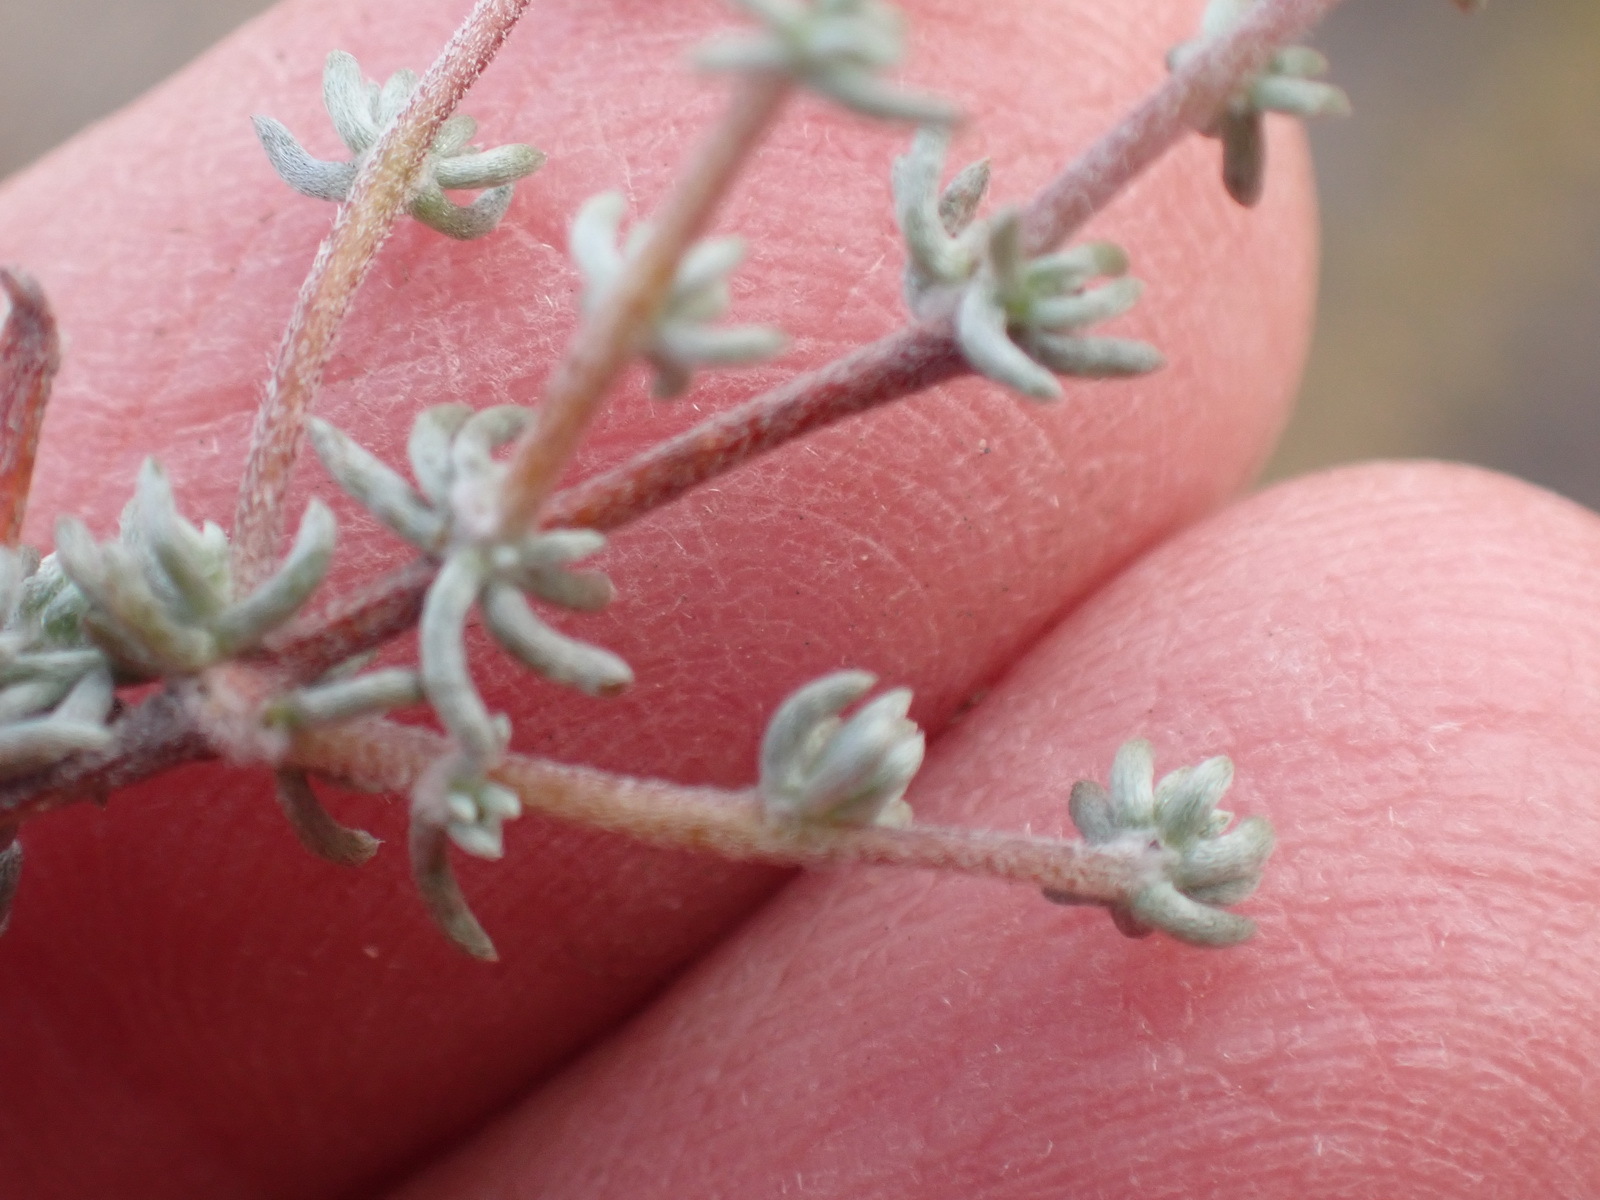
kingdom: Plantae
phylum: Tracheophyta
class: Magnoliopsida
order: Fabales
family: Fabaceae
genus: Aspalathus
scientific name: Aspalathus rubens
